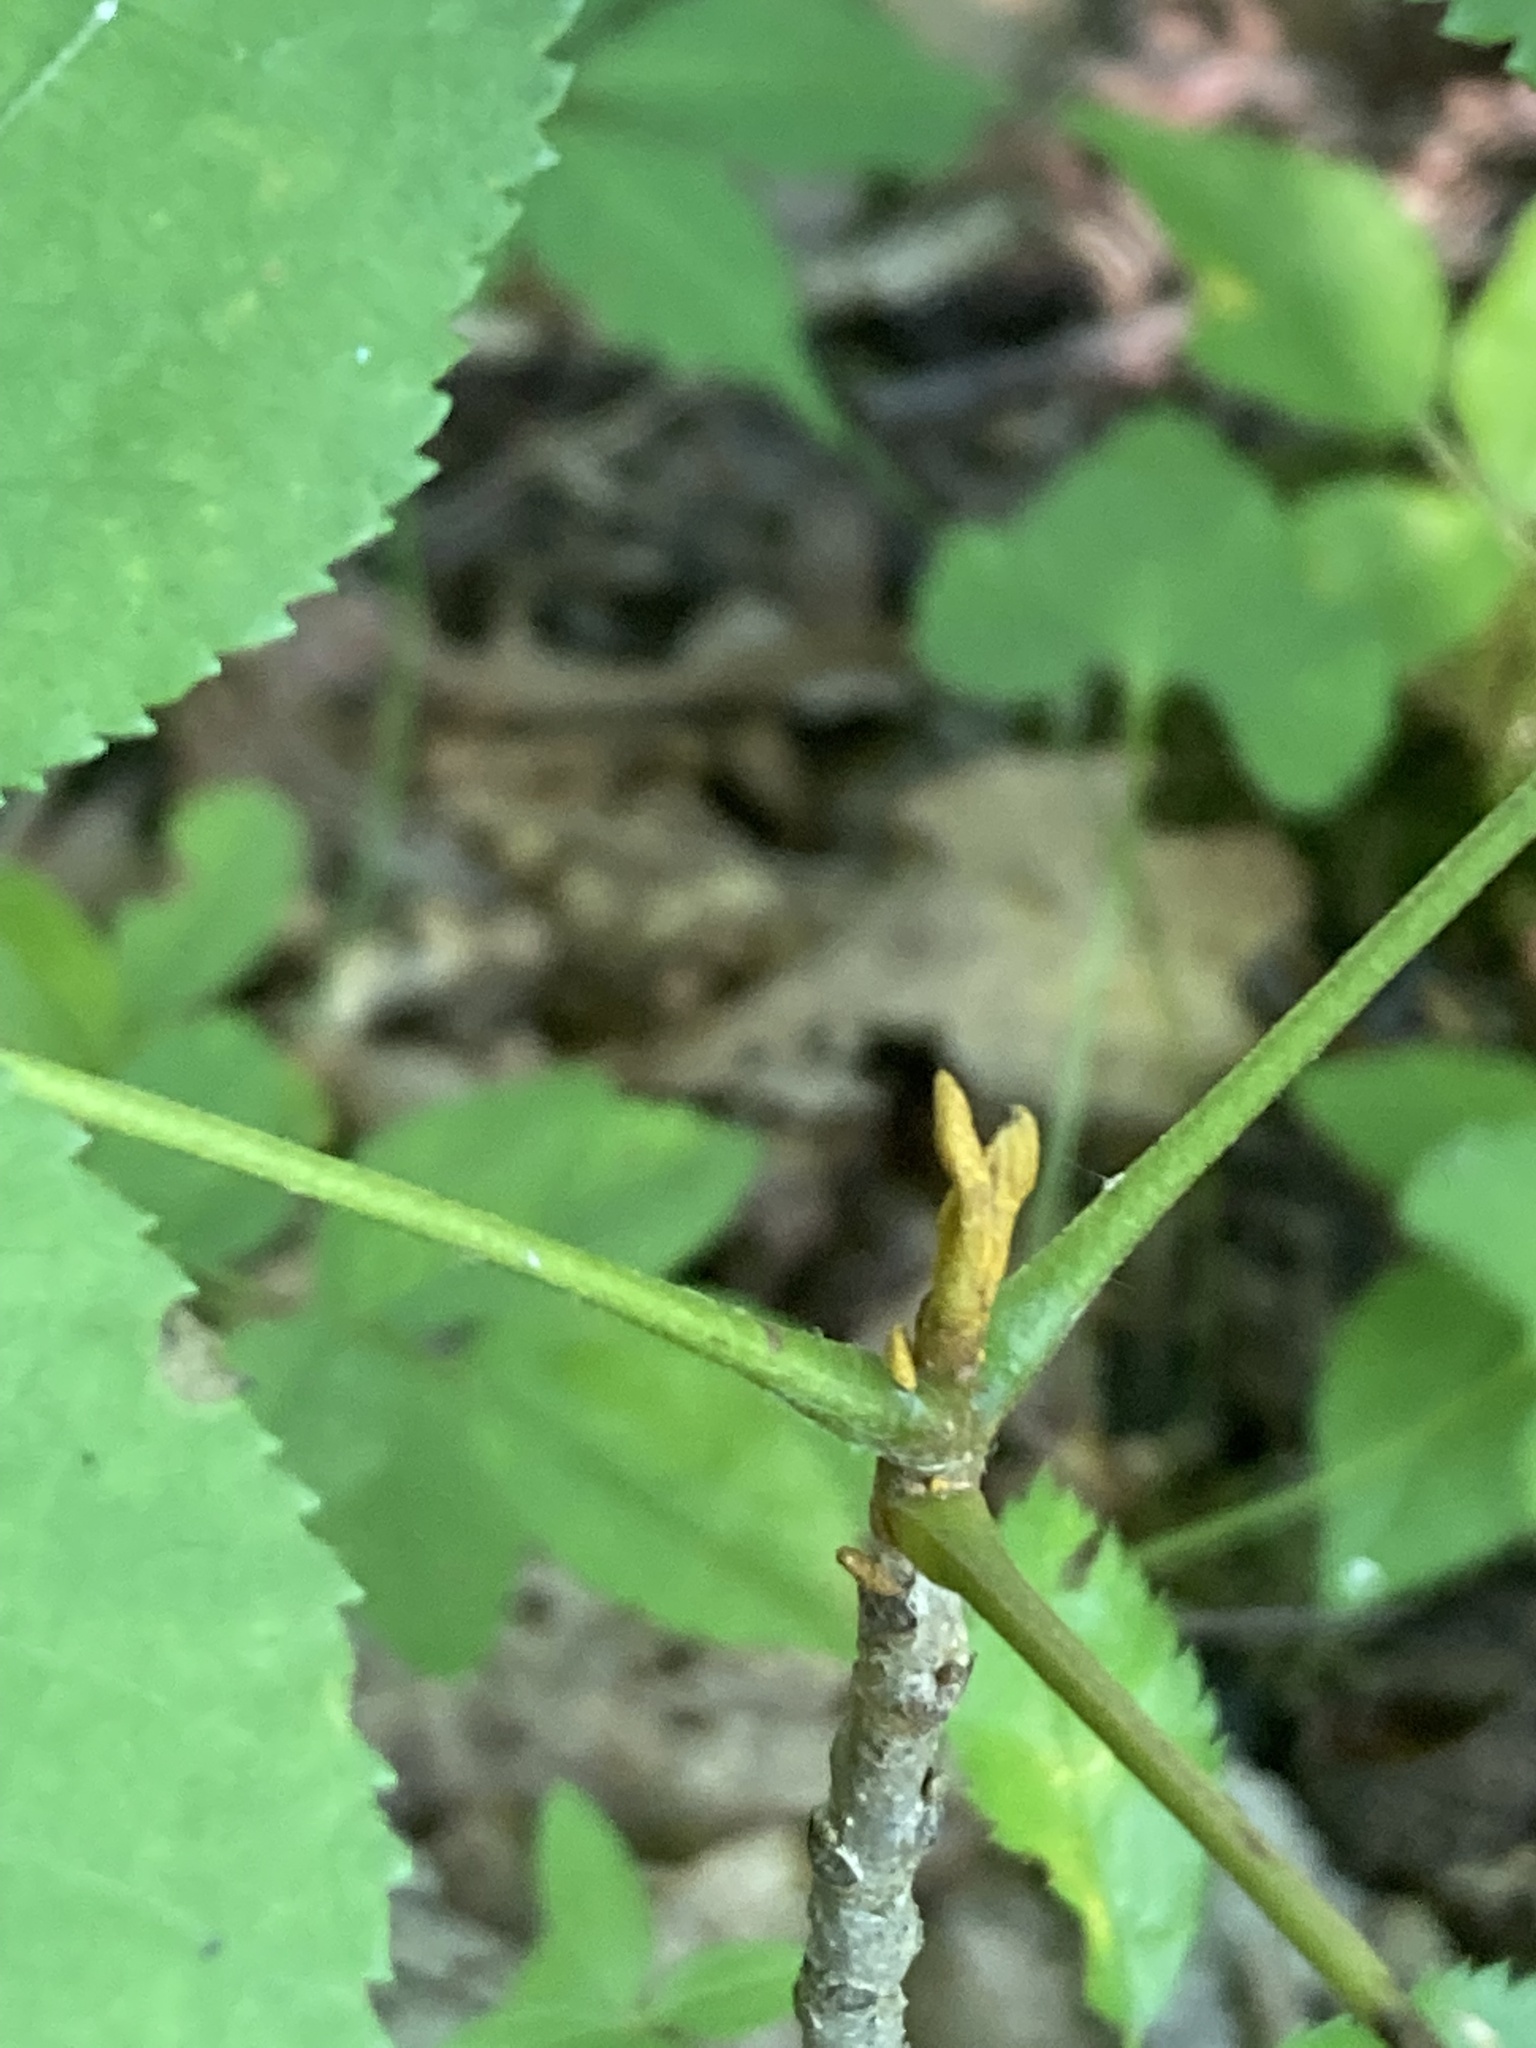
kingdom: Plantae
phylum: Tracheophyta
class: Magnoliopsida
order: Fagales
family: Juglandaceae
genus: Carya
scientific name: Carya cordiformis
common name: Bitternut hickory
